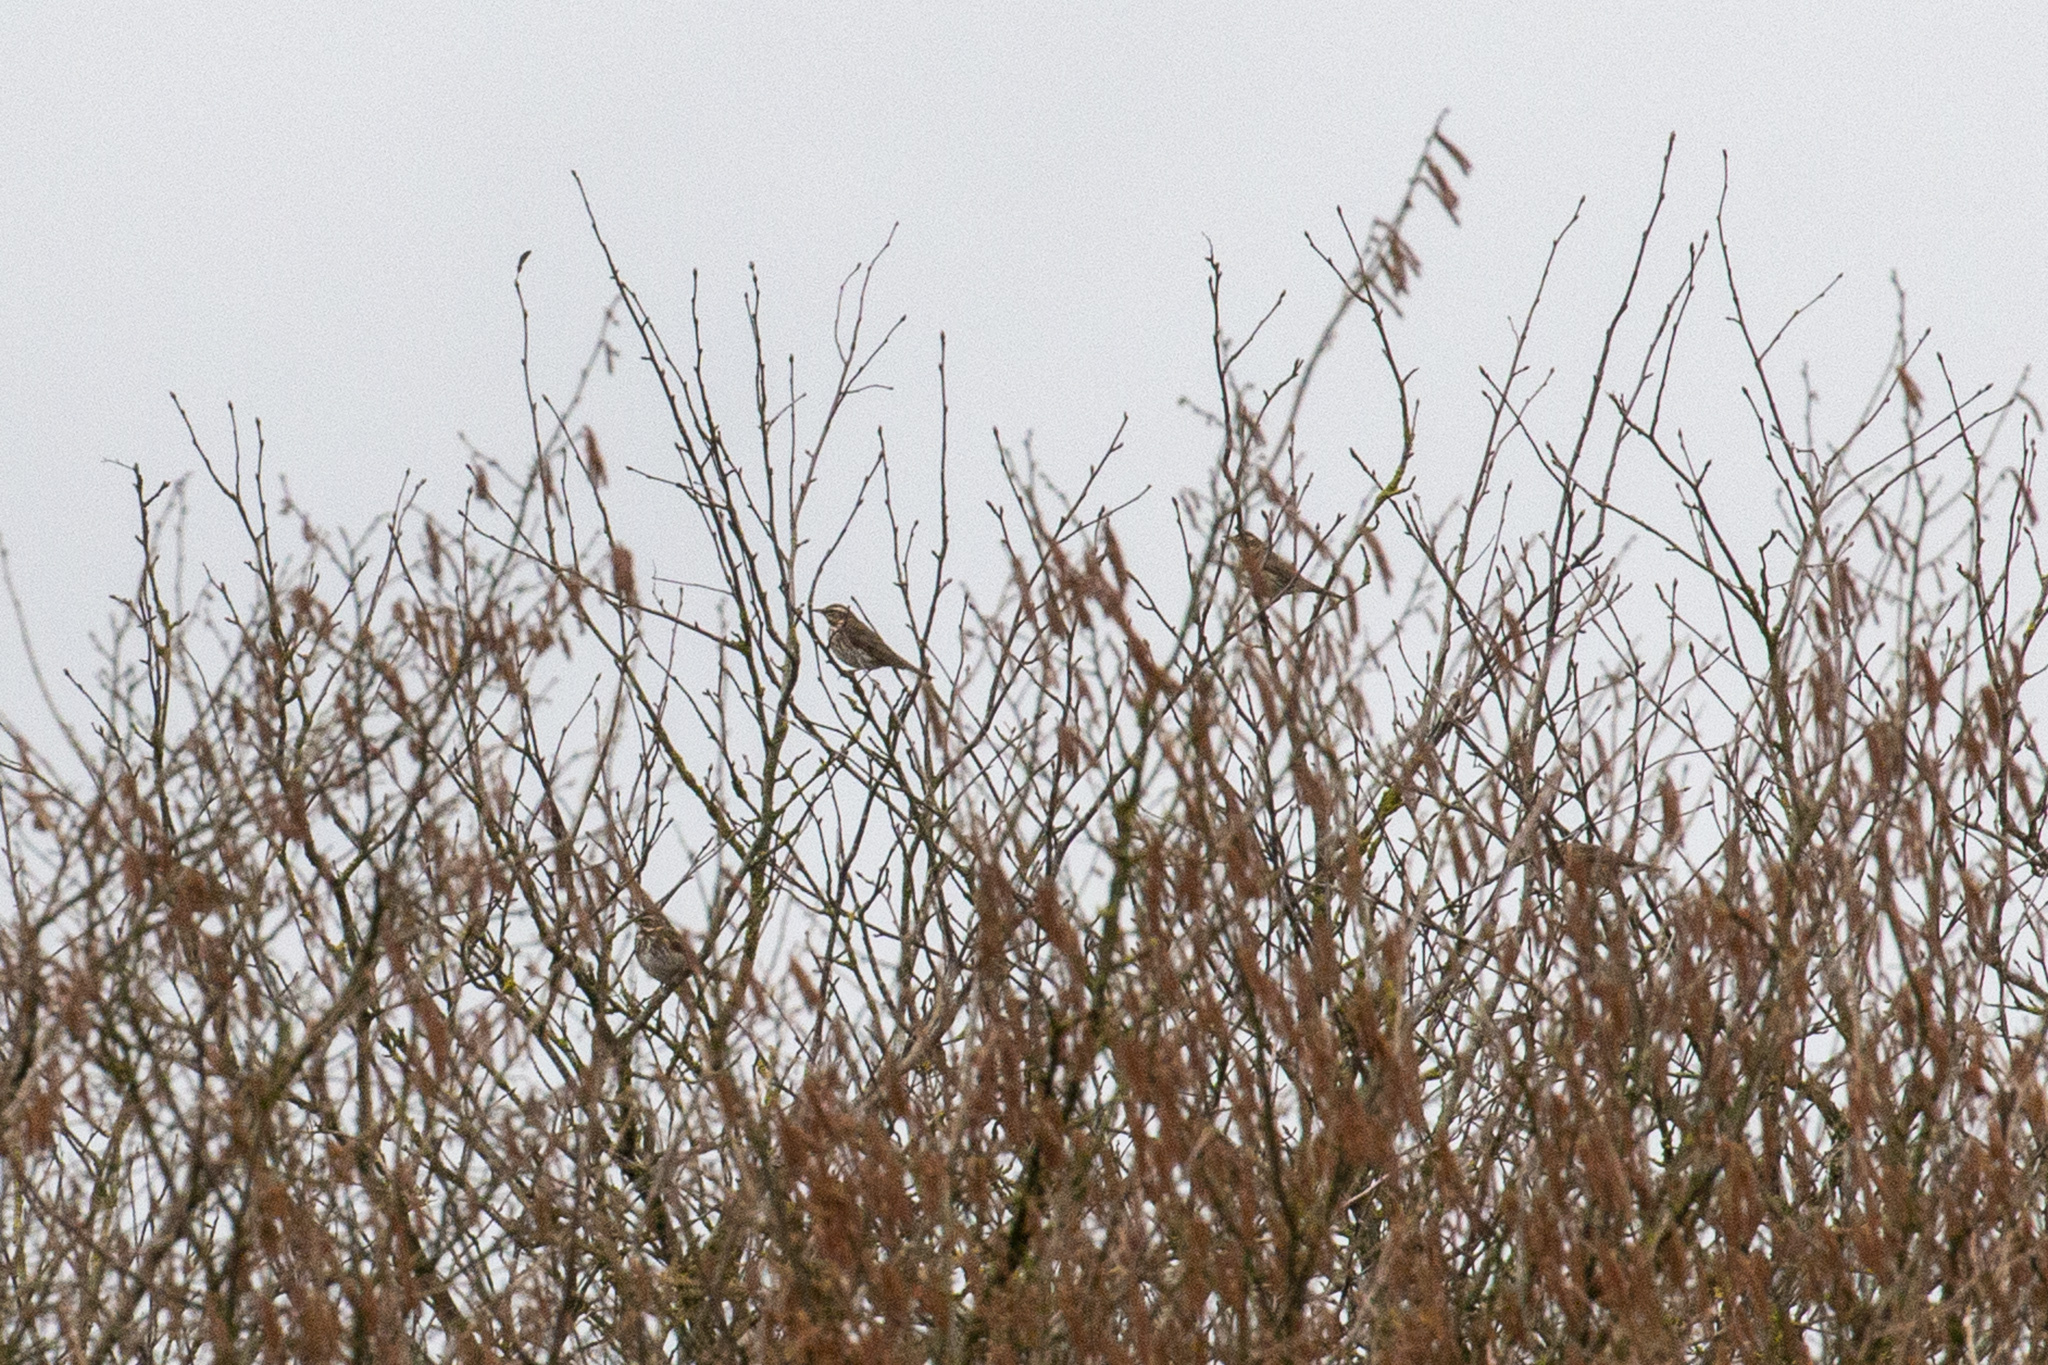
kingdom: Animalia
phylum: Chordata
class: Aves
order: Passeriformes
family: Turdidae
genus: Turdus
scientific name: Turdus iliacus
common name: Redwing
